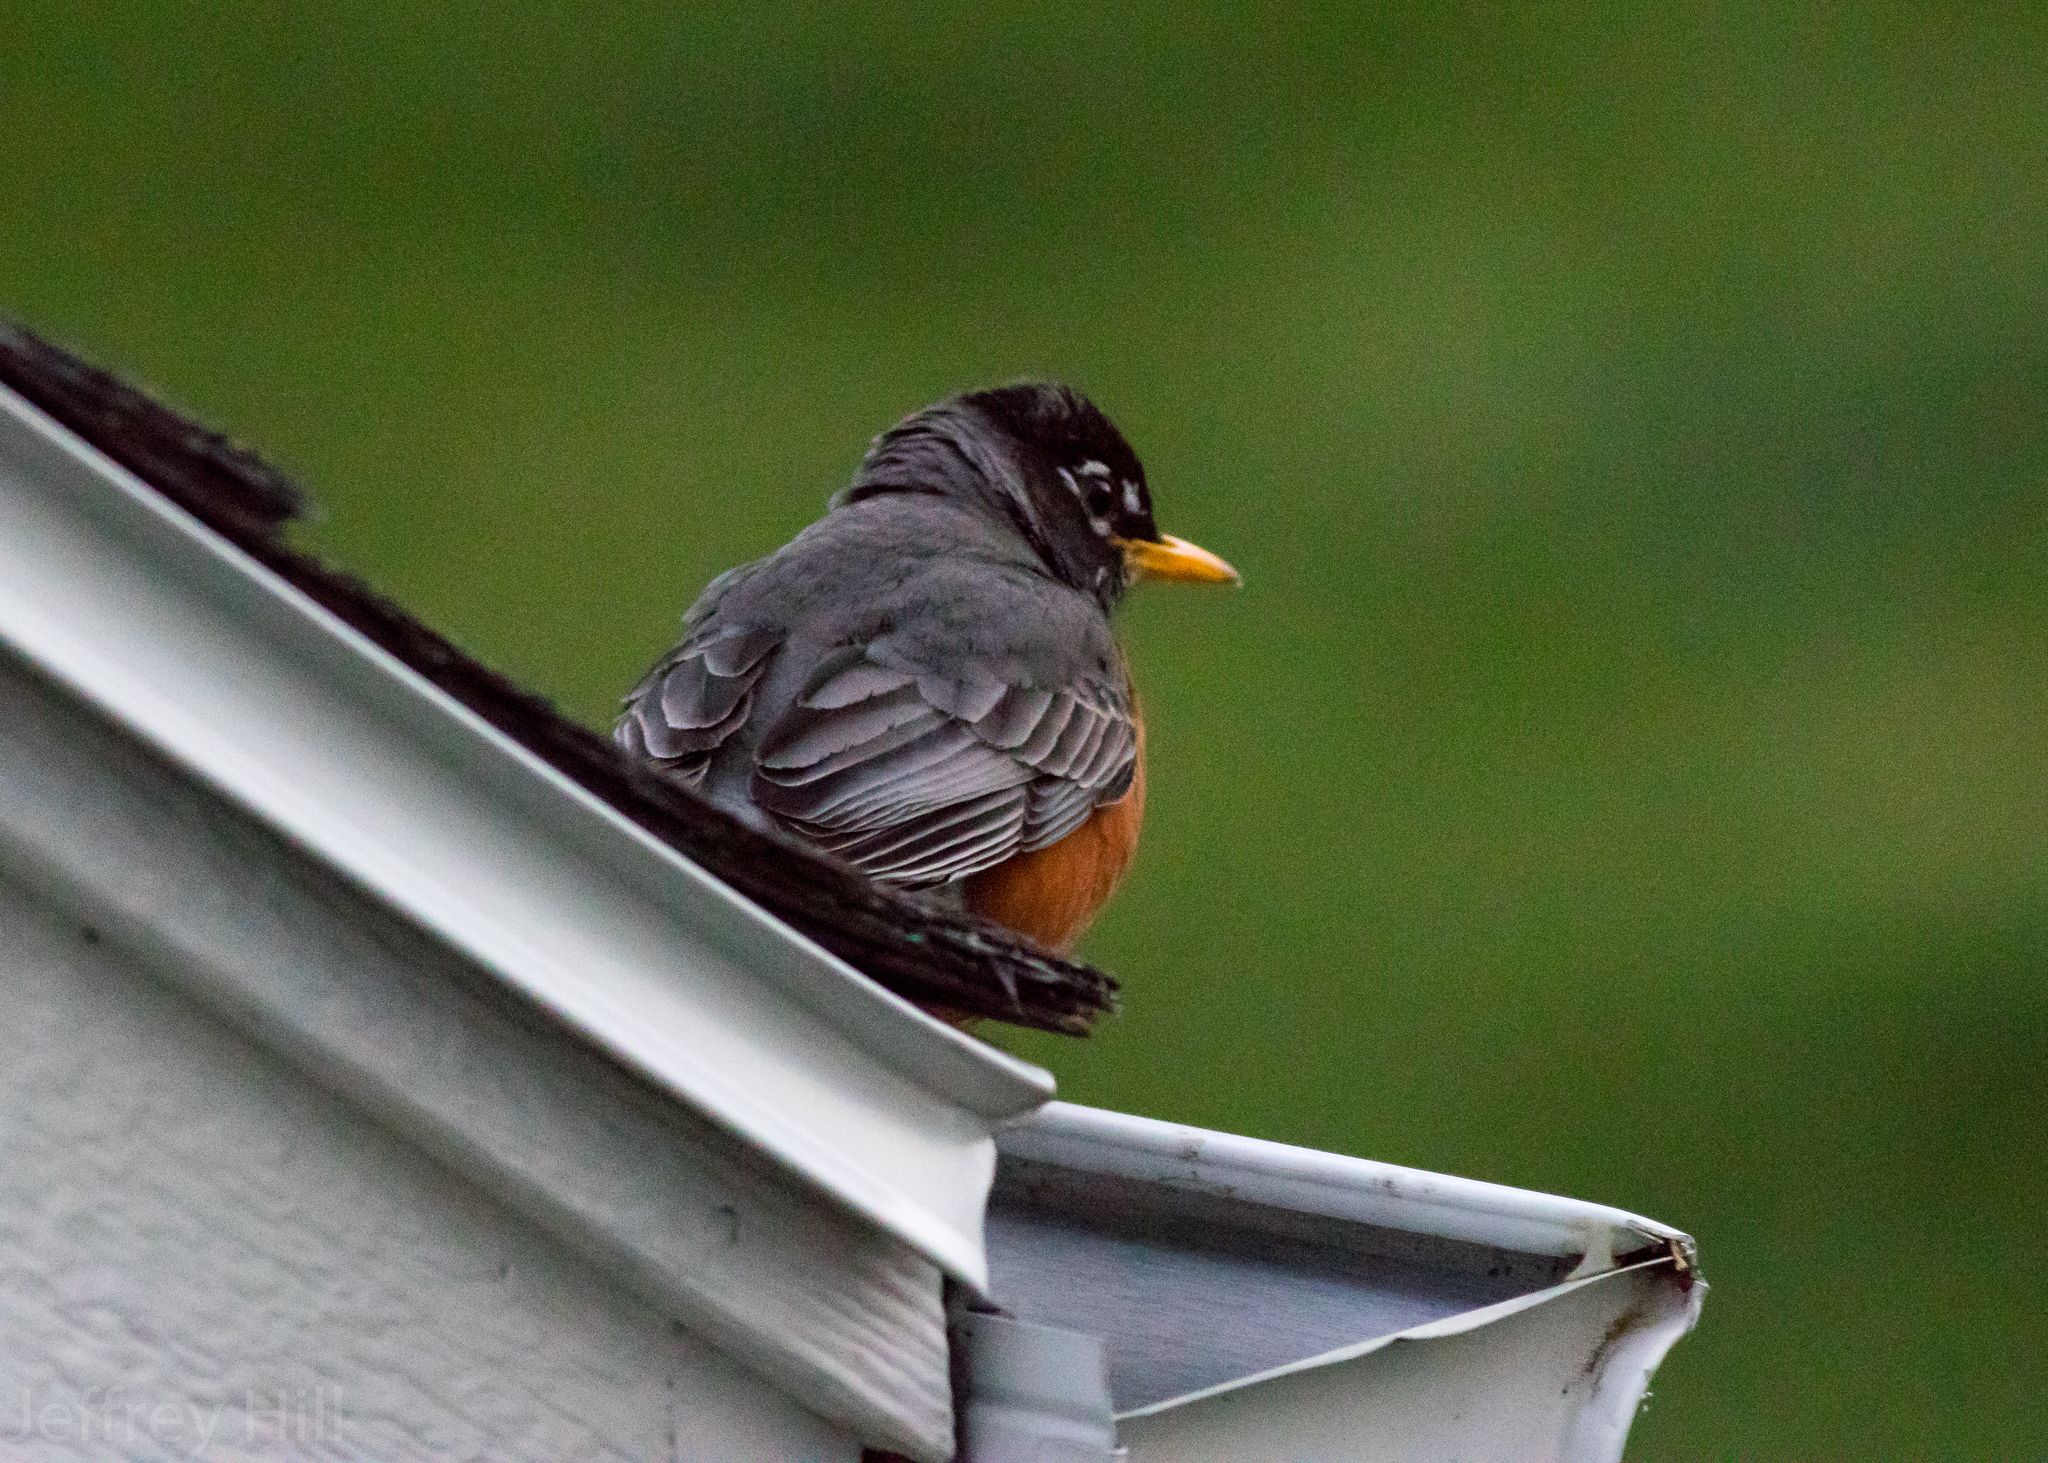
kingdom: Animalia
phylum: Chordata
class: Aves
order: Passeriformes
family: Turdidae
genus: Turdus
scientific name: Turdus migratorius
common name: American robin
